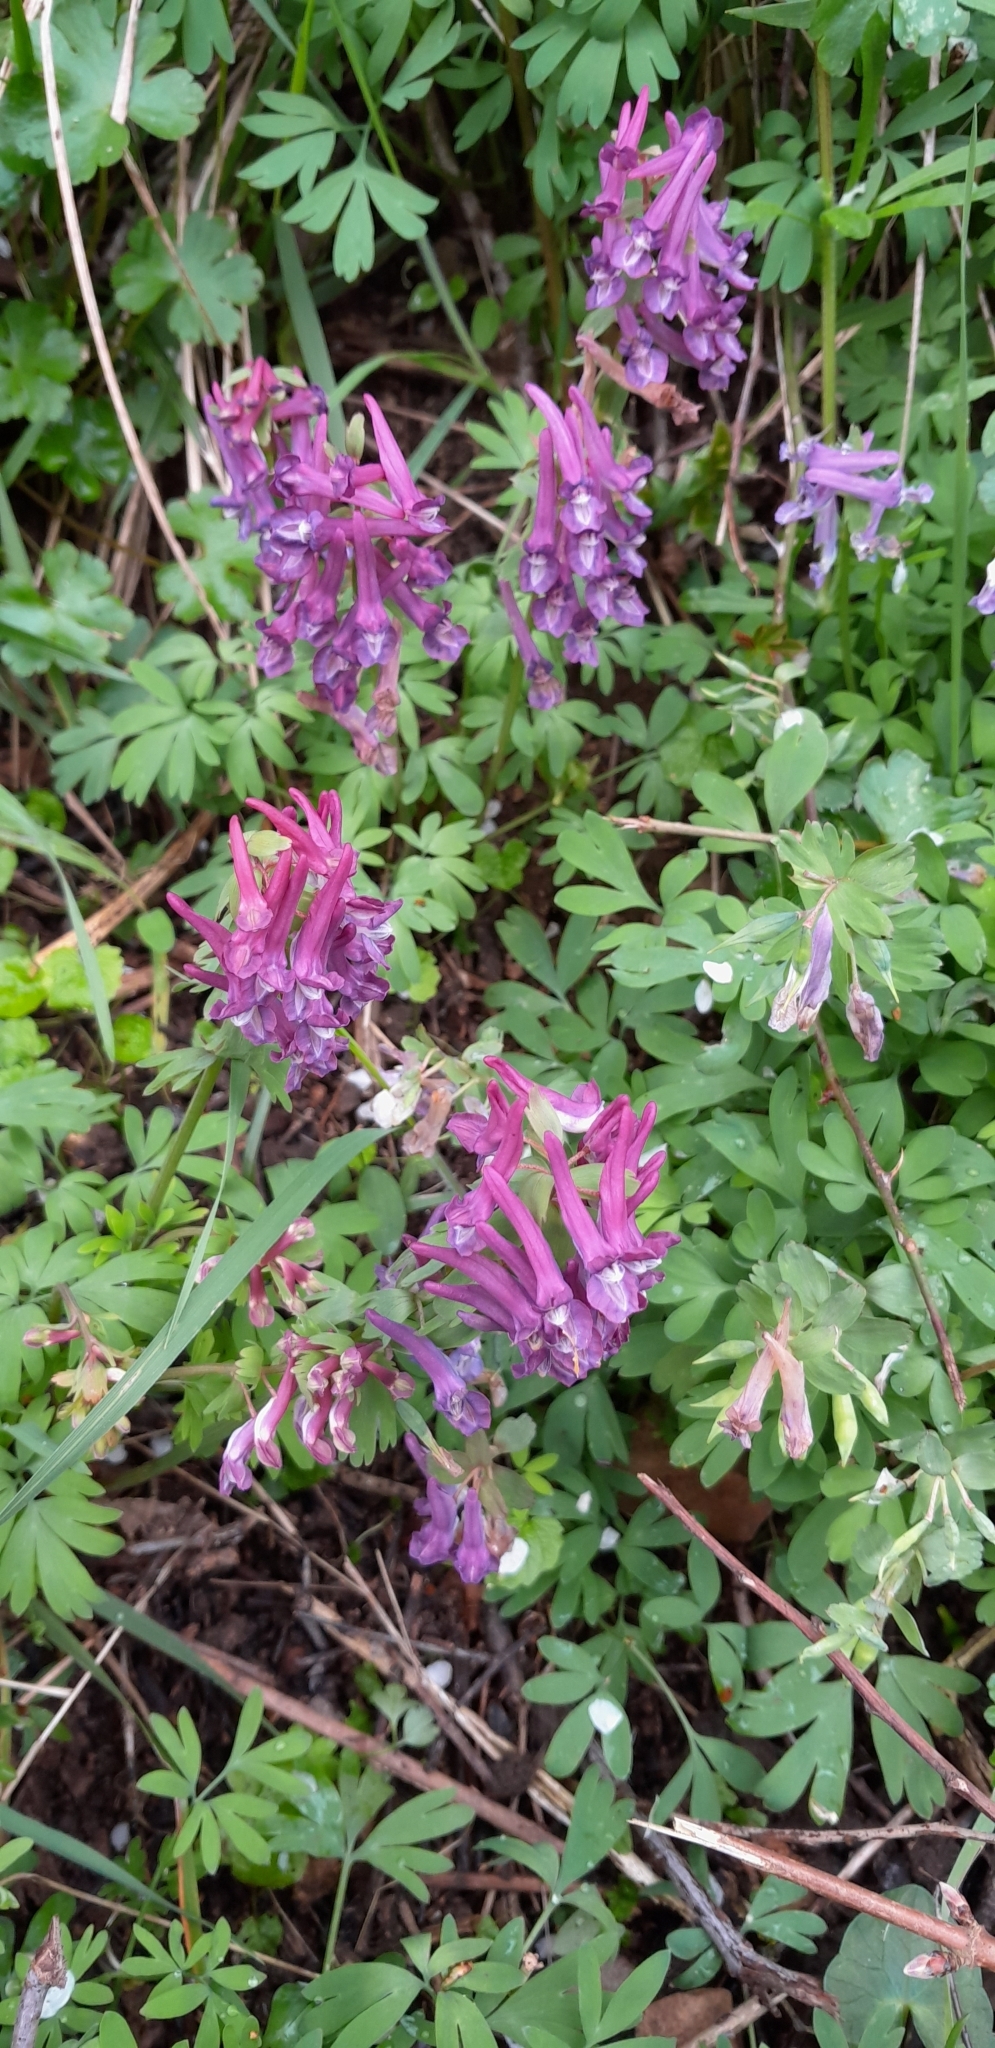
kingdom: Plantae
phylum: Tracheophyta
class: Magnoliopsida
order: Ranunculales
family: Papaveraceae
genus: Corydalis
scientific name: Corydalis solida
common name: Bird-in-a-bush
